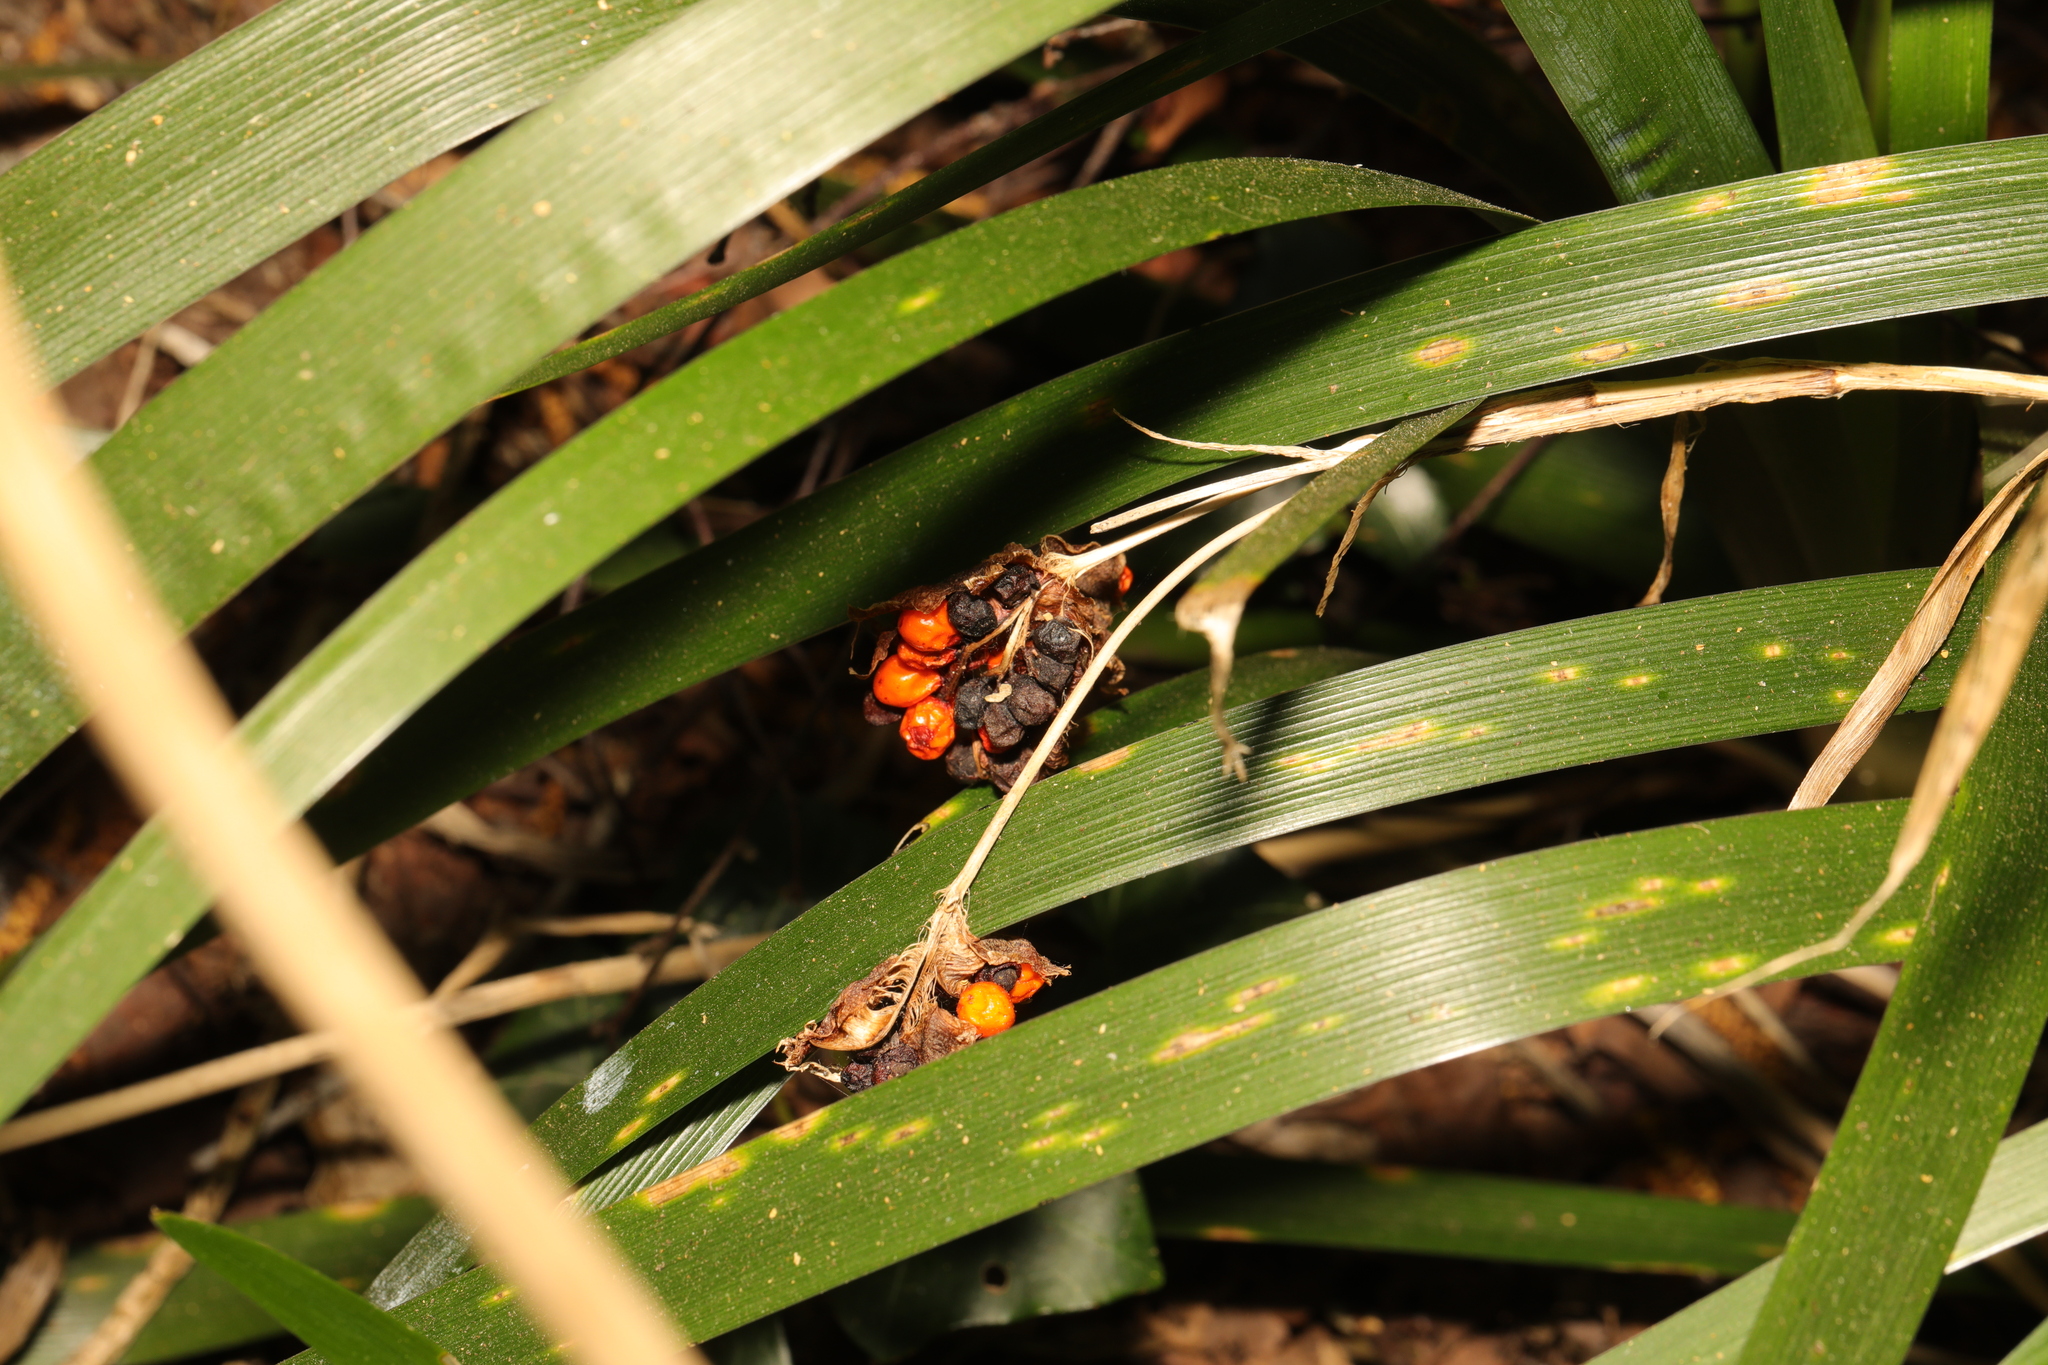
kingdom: Plantae
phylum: Tracheophyta
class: Liliopsida
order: Asparagales
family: Iridaceae
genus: Iris
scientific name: Iris foetidissima
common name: Stinking iris
